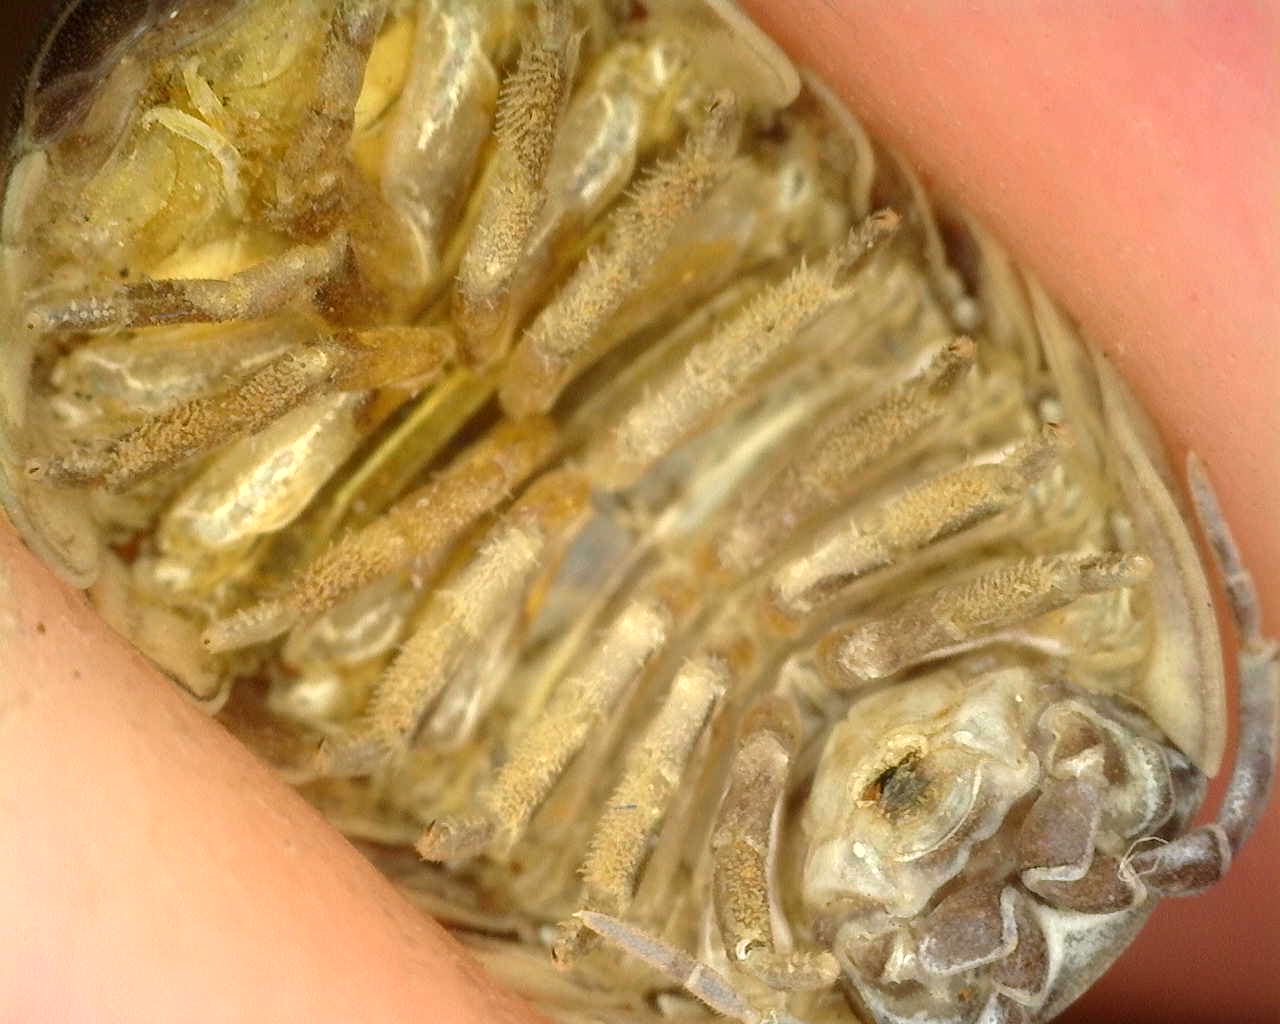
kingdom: Animalia
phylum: Arthropoda
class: Malacostraca
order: Isopoda
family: Armadillidiidae
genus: Armadillidium
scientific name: Armadillidium vulgare
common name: Common pill woodlouse
